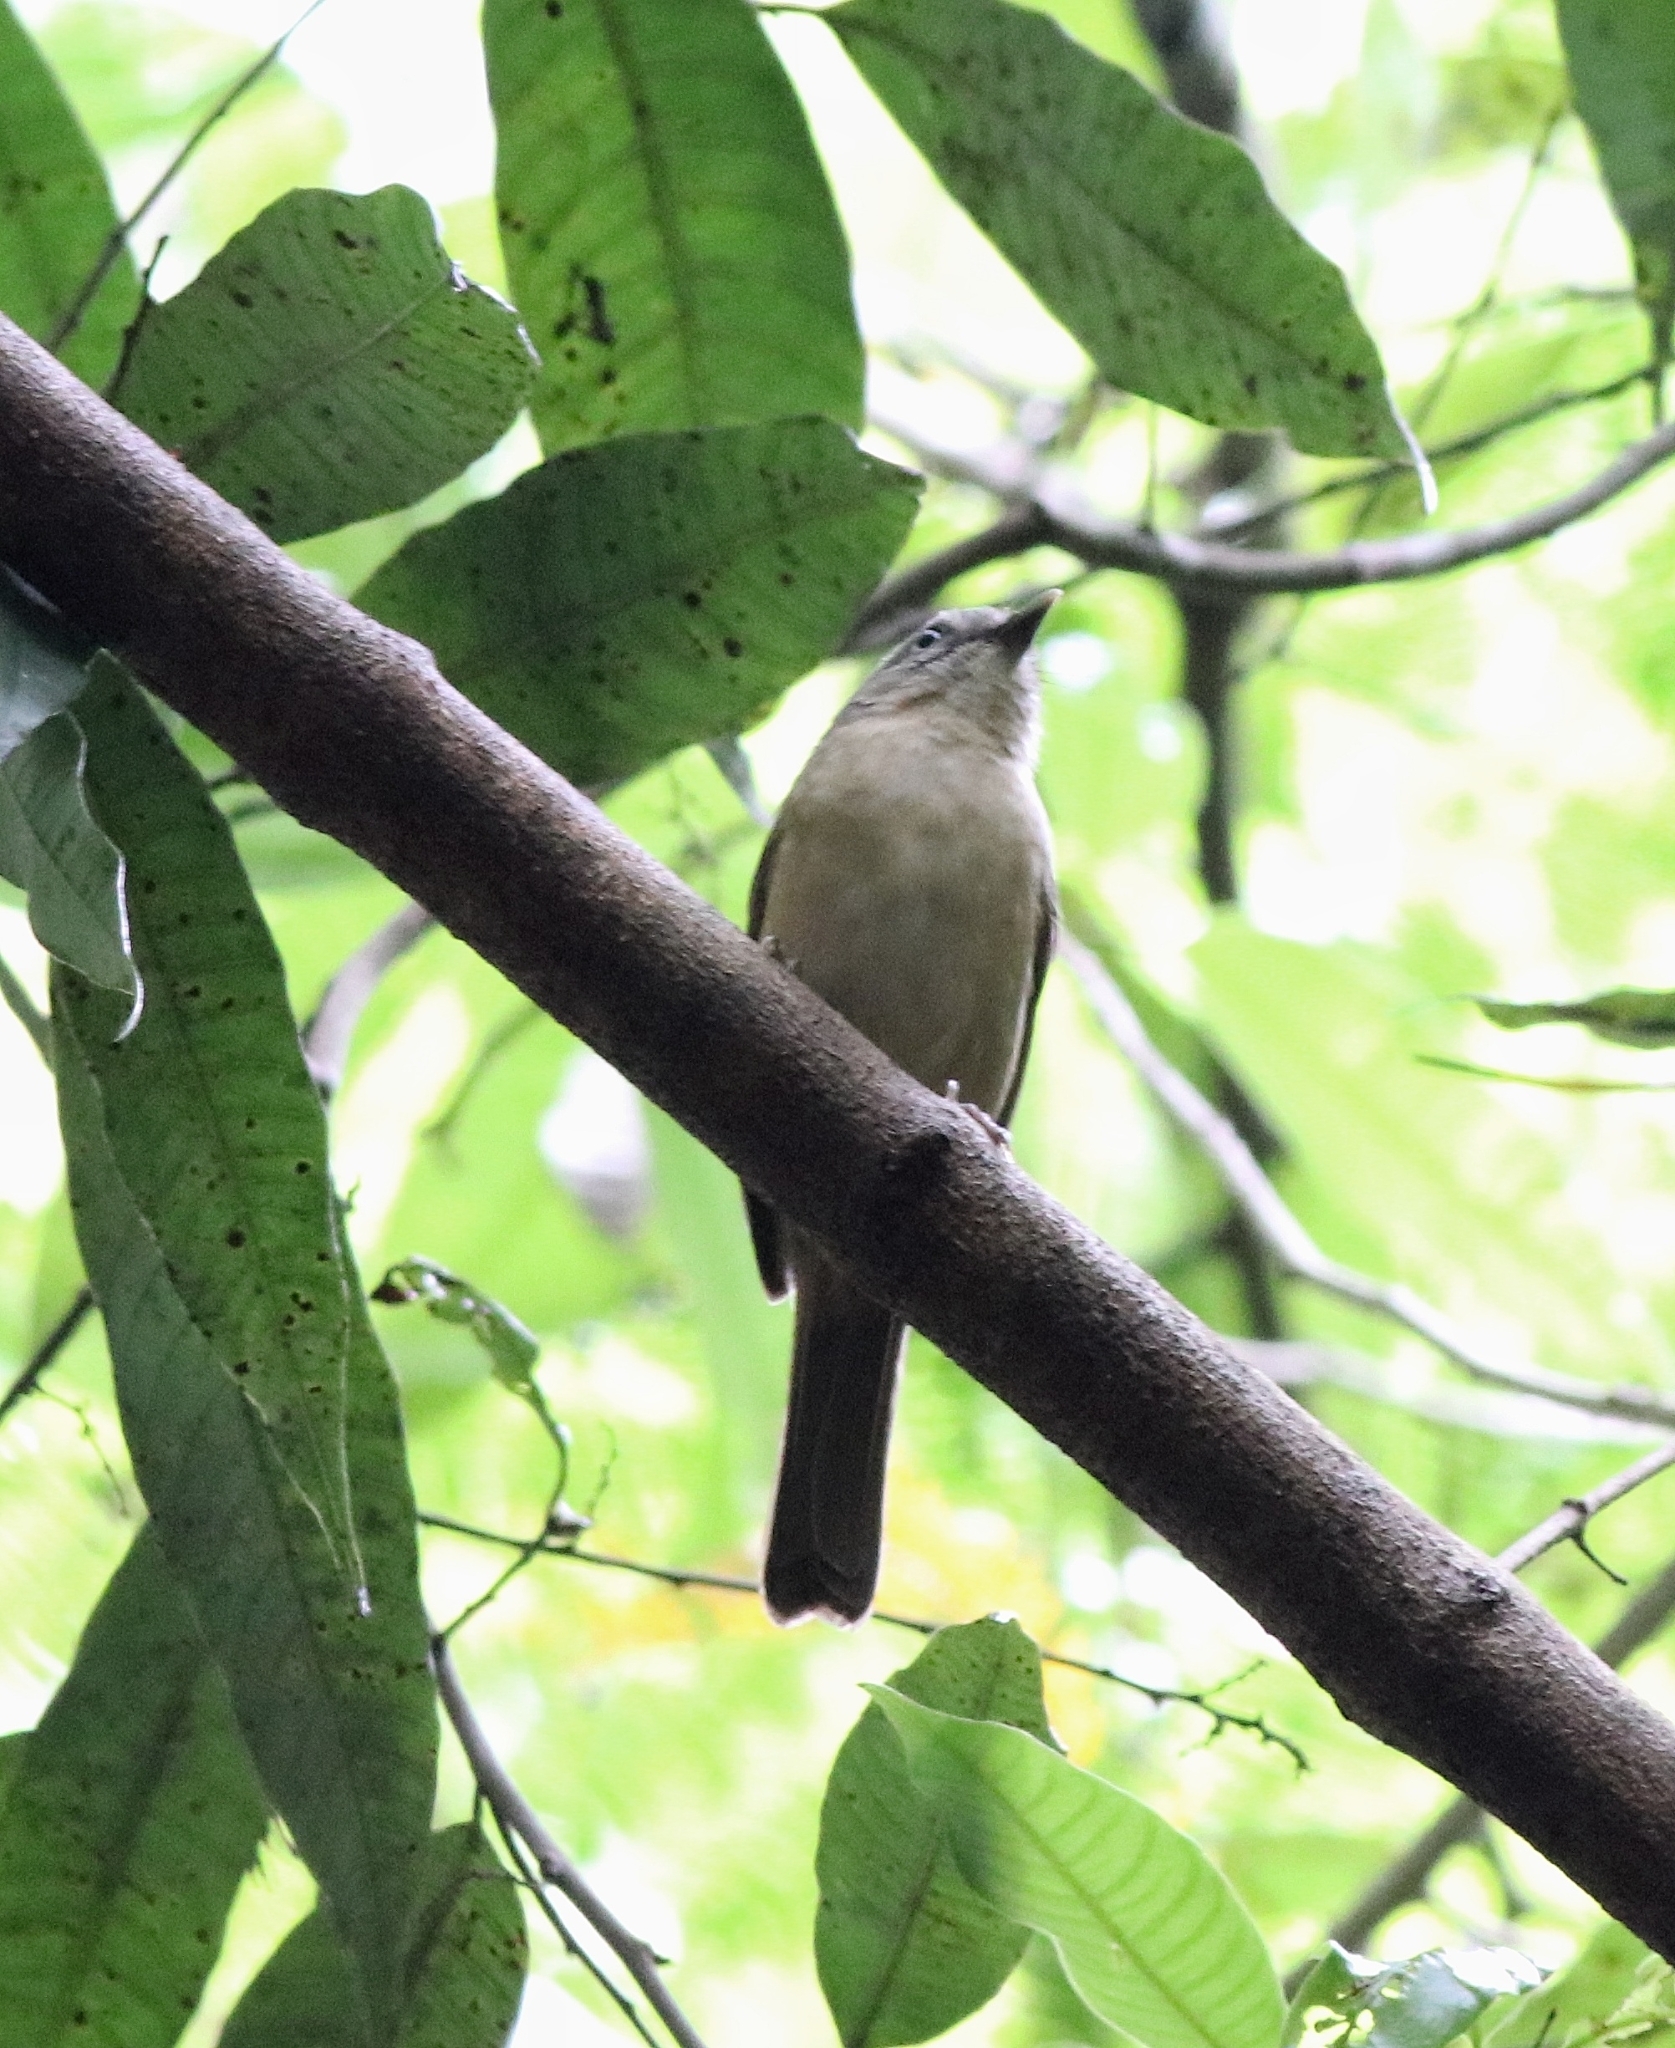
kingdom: Animalia
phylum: Chordata
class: Aves
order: Passeriformes
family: Pellorneidae
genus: Alcippe
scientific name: Alcippe poioicephala
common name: Brown-cheeked fulvetta
